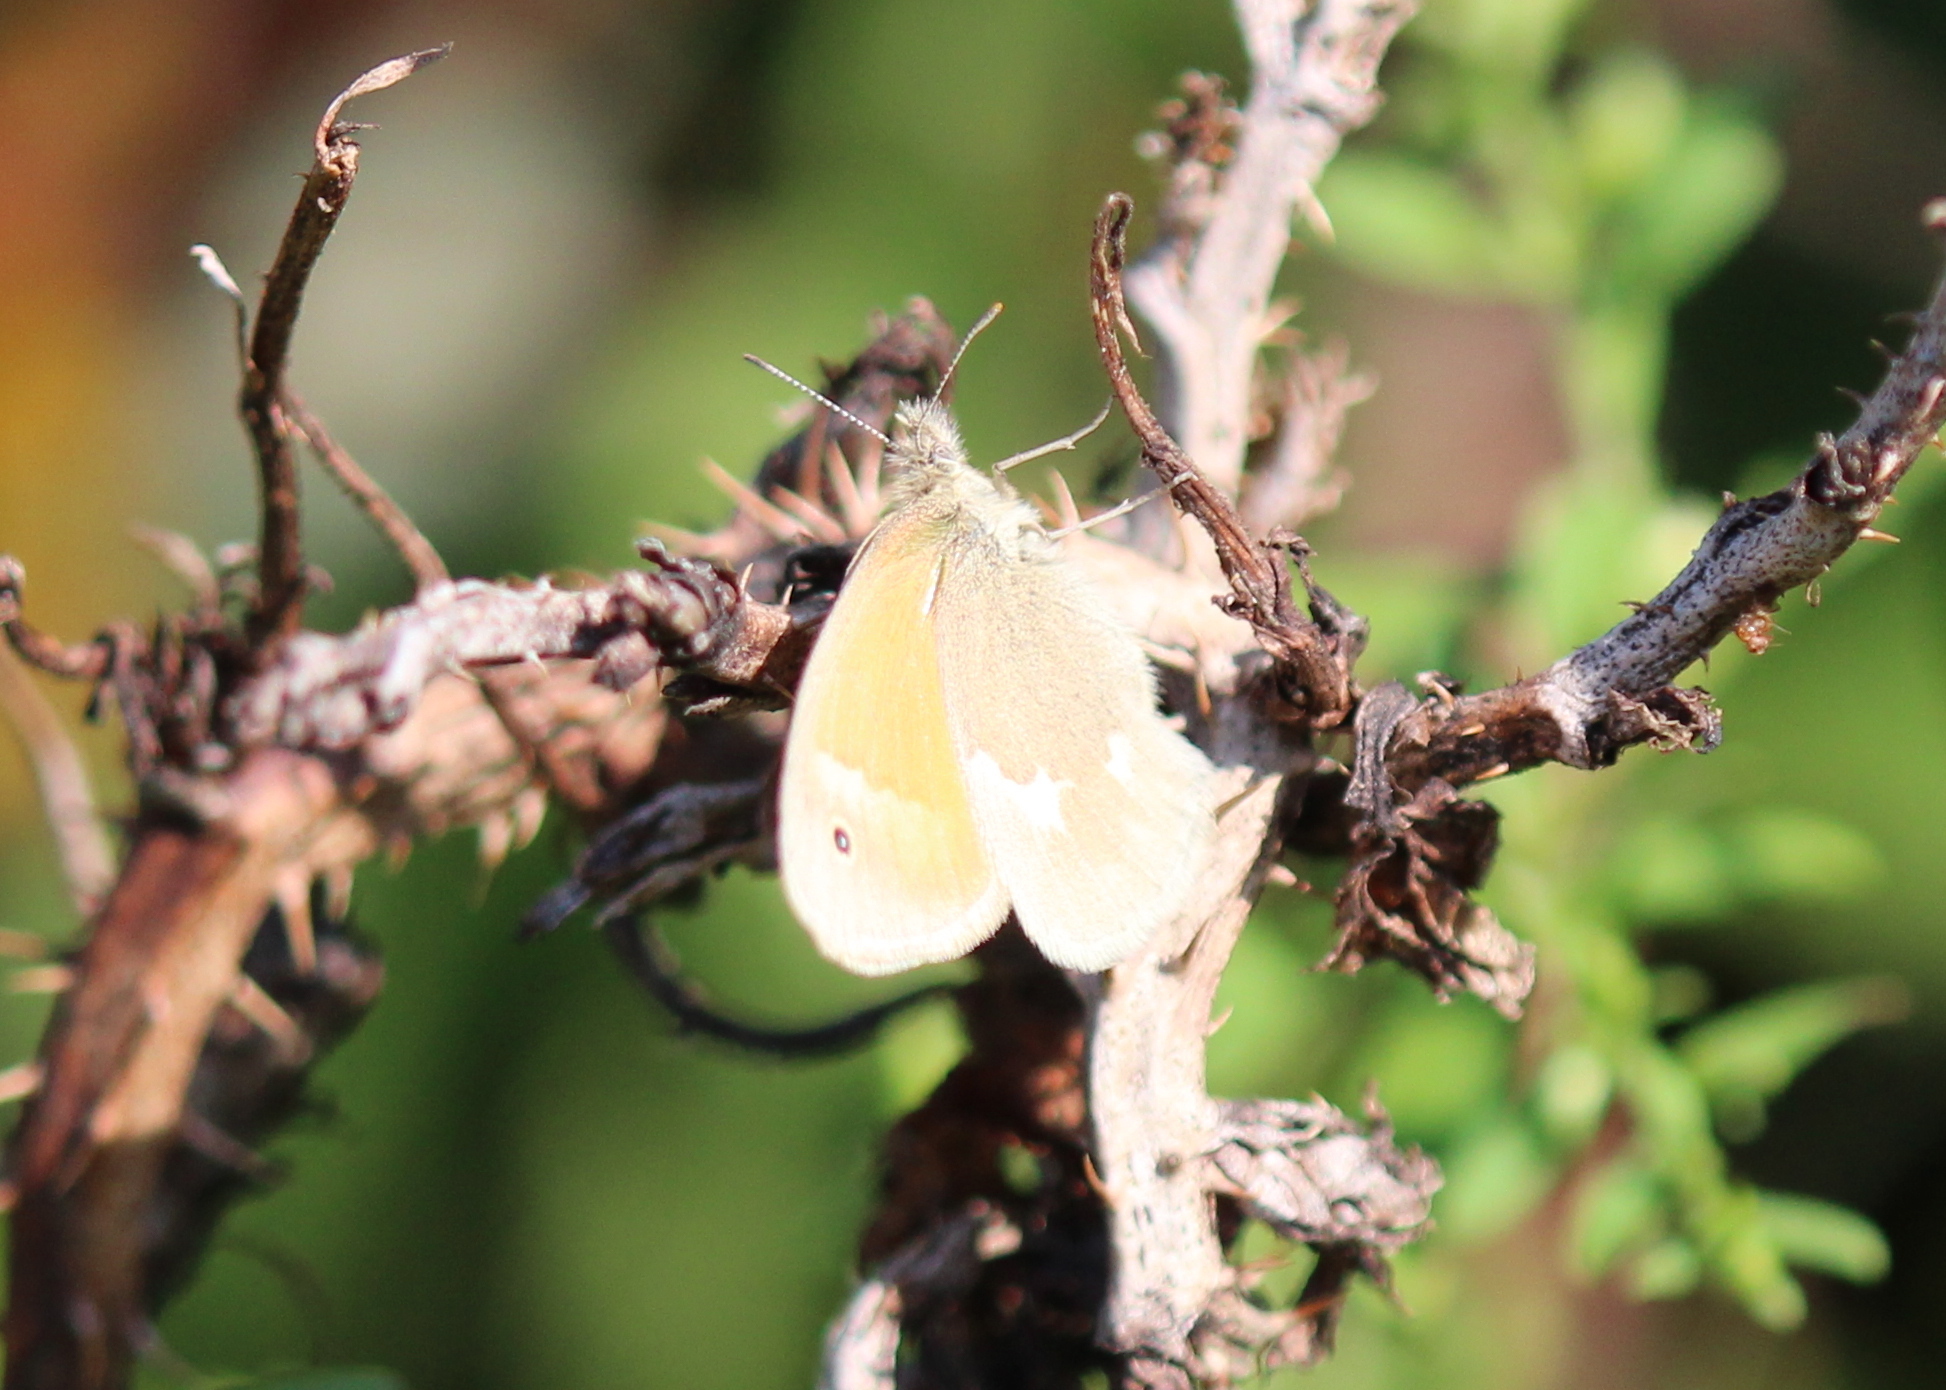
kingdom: Animalia
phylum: Arthropoda
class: Insecta
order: Lepidoptera
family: Nymphalidae
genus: Coenonympha
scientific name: Coenonympha california
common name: Common ringlet
